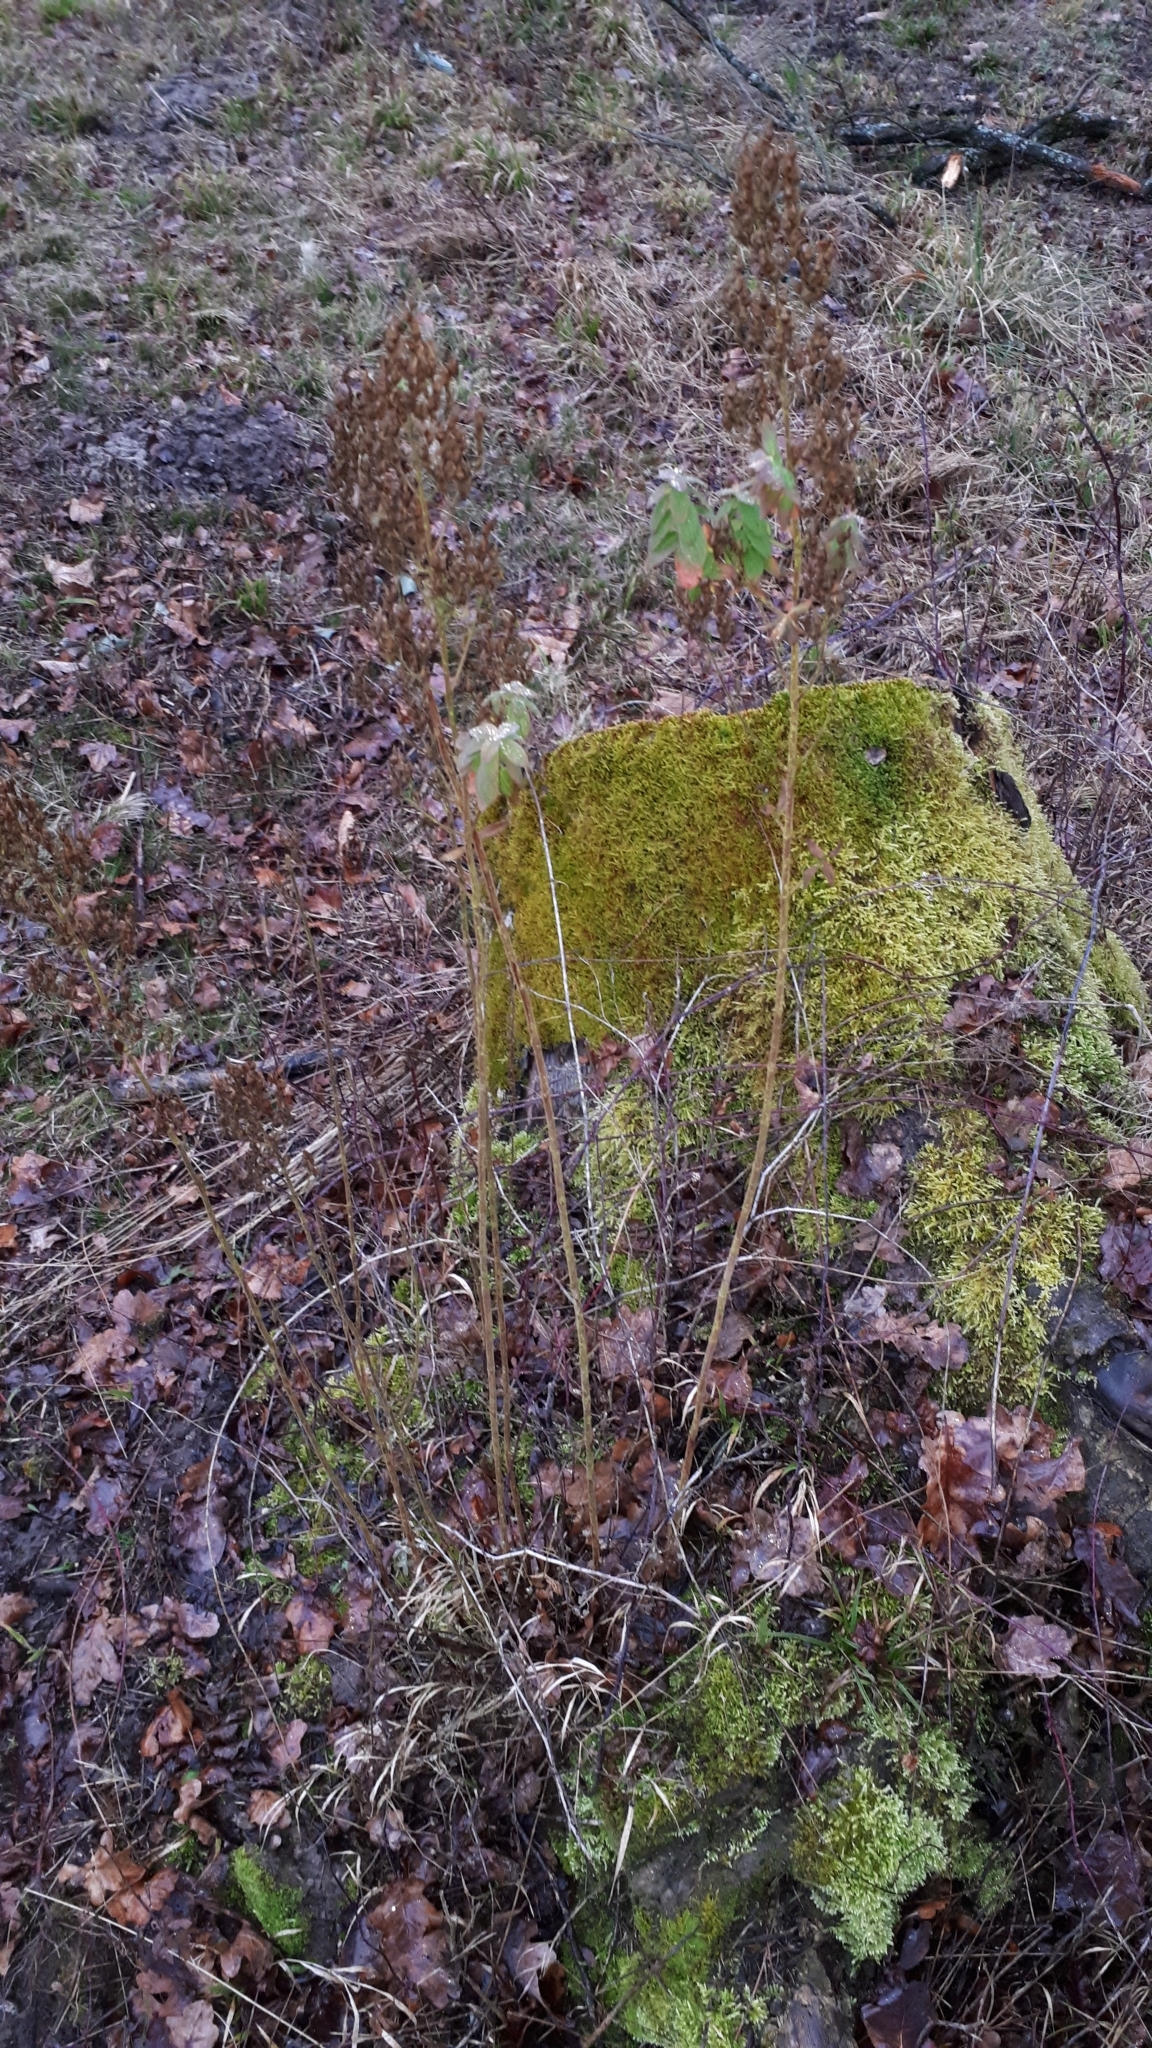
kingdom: Plantae
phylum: Tracheophyta
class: Magnoliopsida
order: Malpighiales
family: Hypericaceae
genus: Hypericum
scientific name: Hypericum hirsutum
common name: Hairy st. john's-wort
